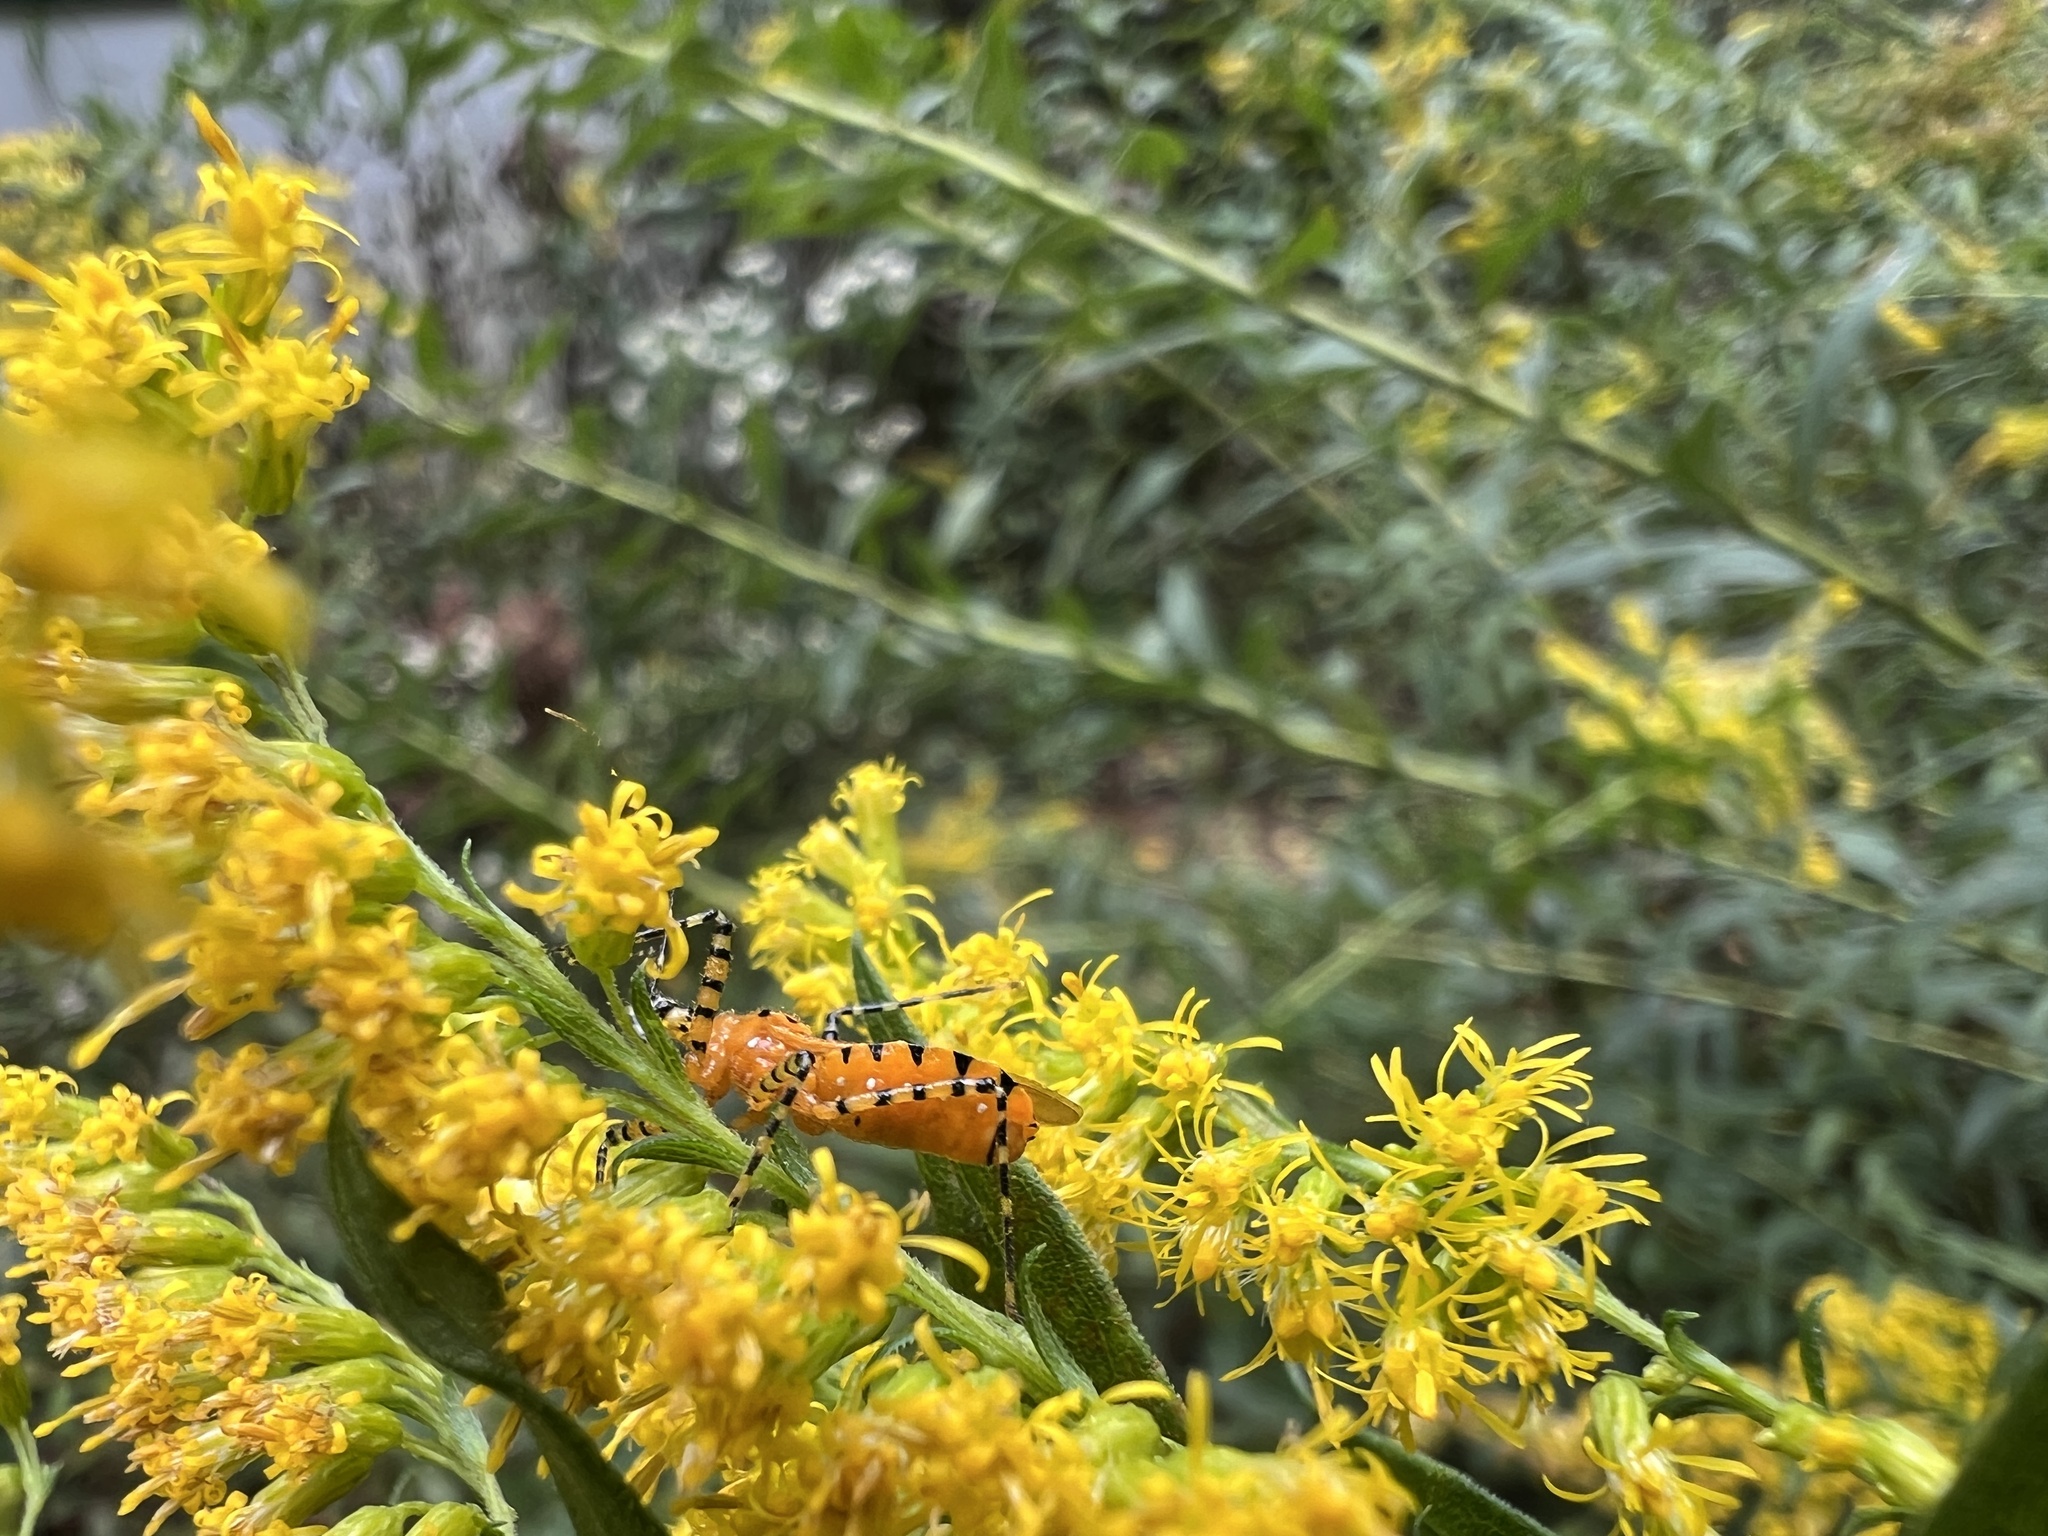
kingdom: Animalia
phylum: Arthropoda
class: Insecta
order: Hemiptera
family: Reduviidae
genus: Pselliopus
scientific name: Pselliopus barberi
